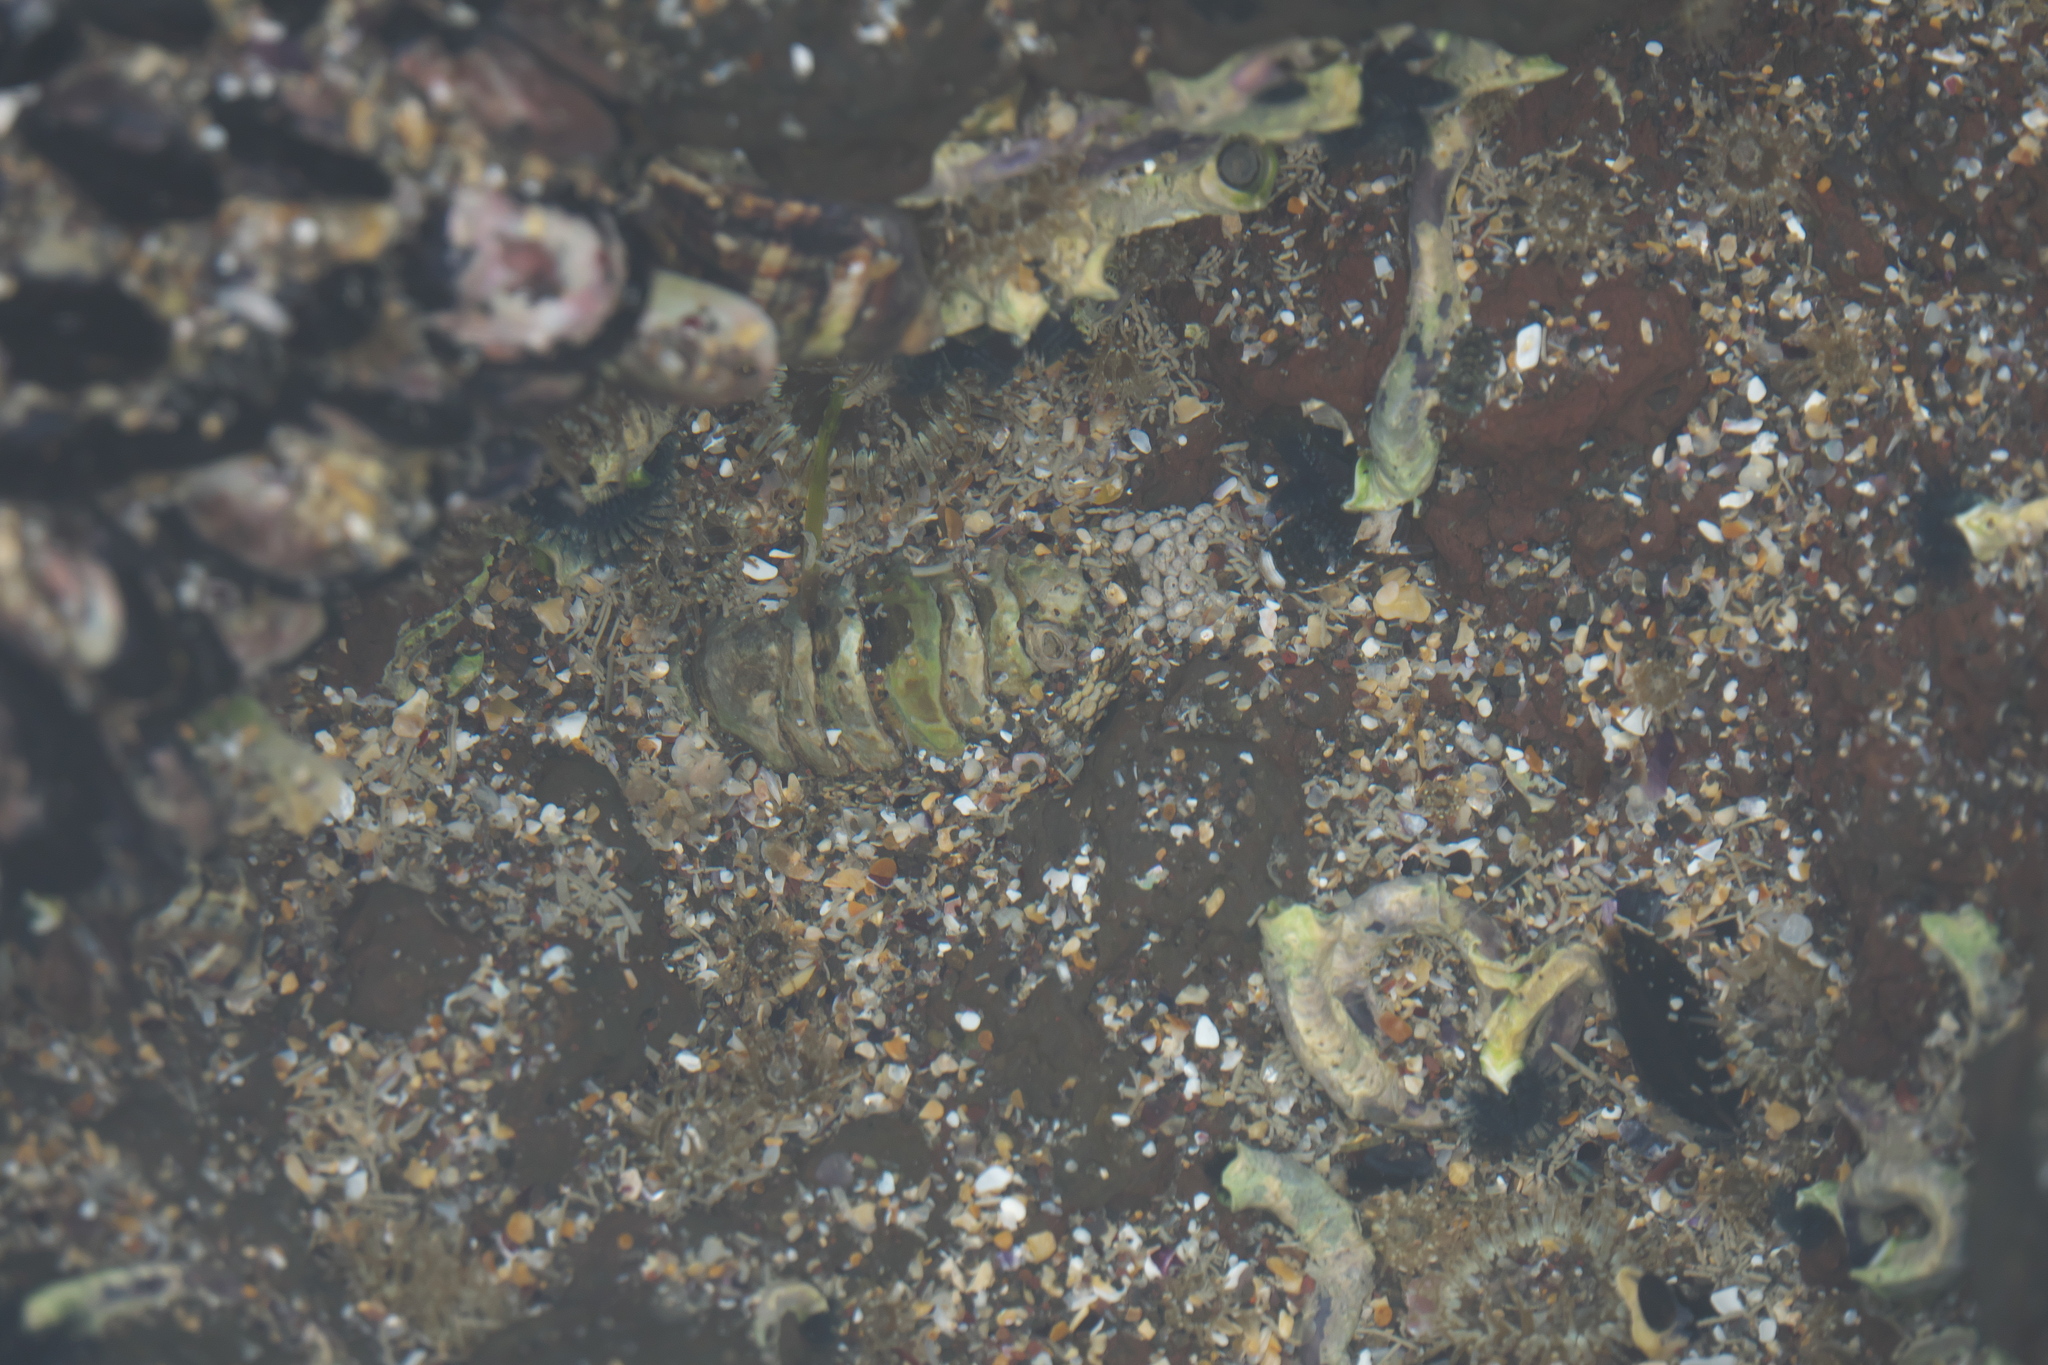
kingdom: Animalia
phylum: Mollusca
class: Polyplacophora
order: Chitonida
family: Chitonidae
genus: Sypharochiton
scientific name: Sypharochiton pelliserpentis
